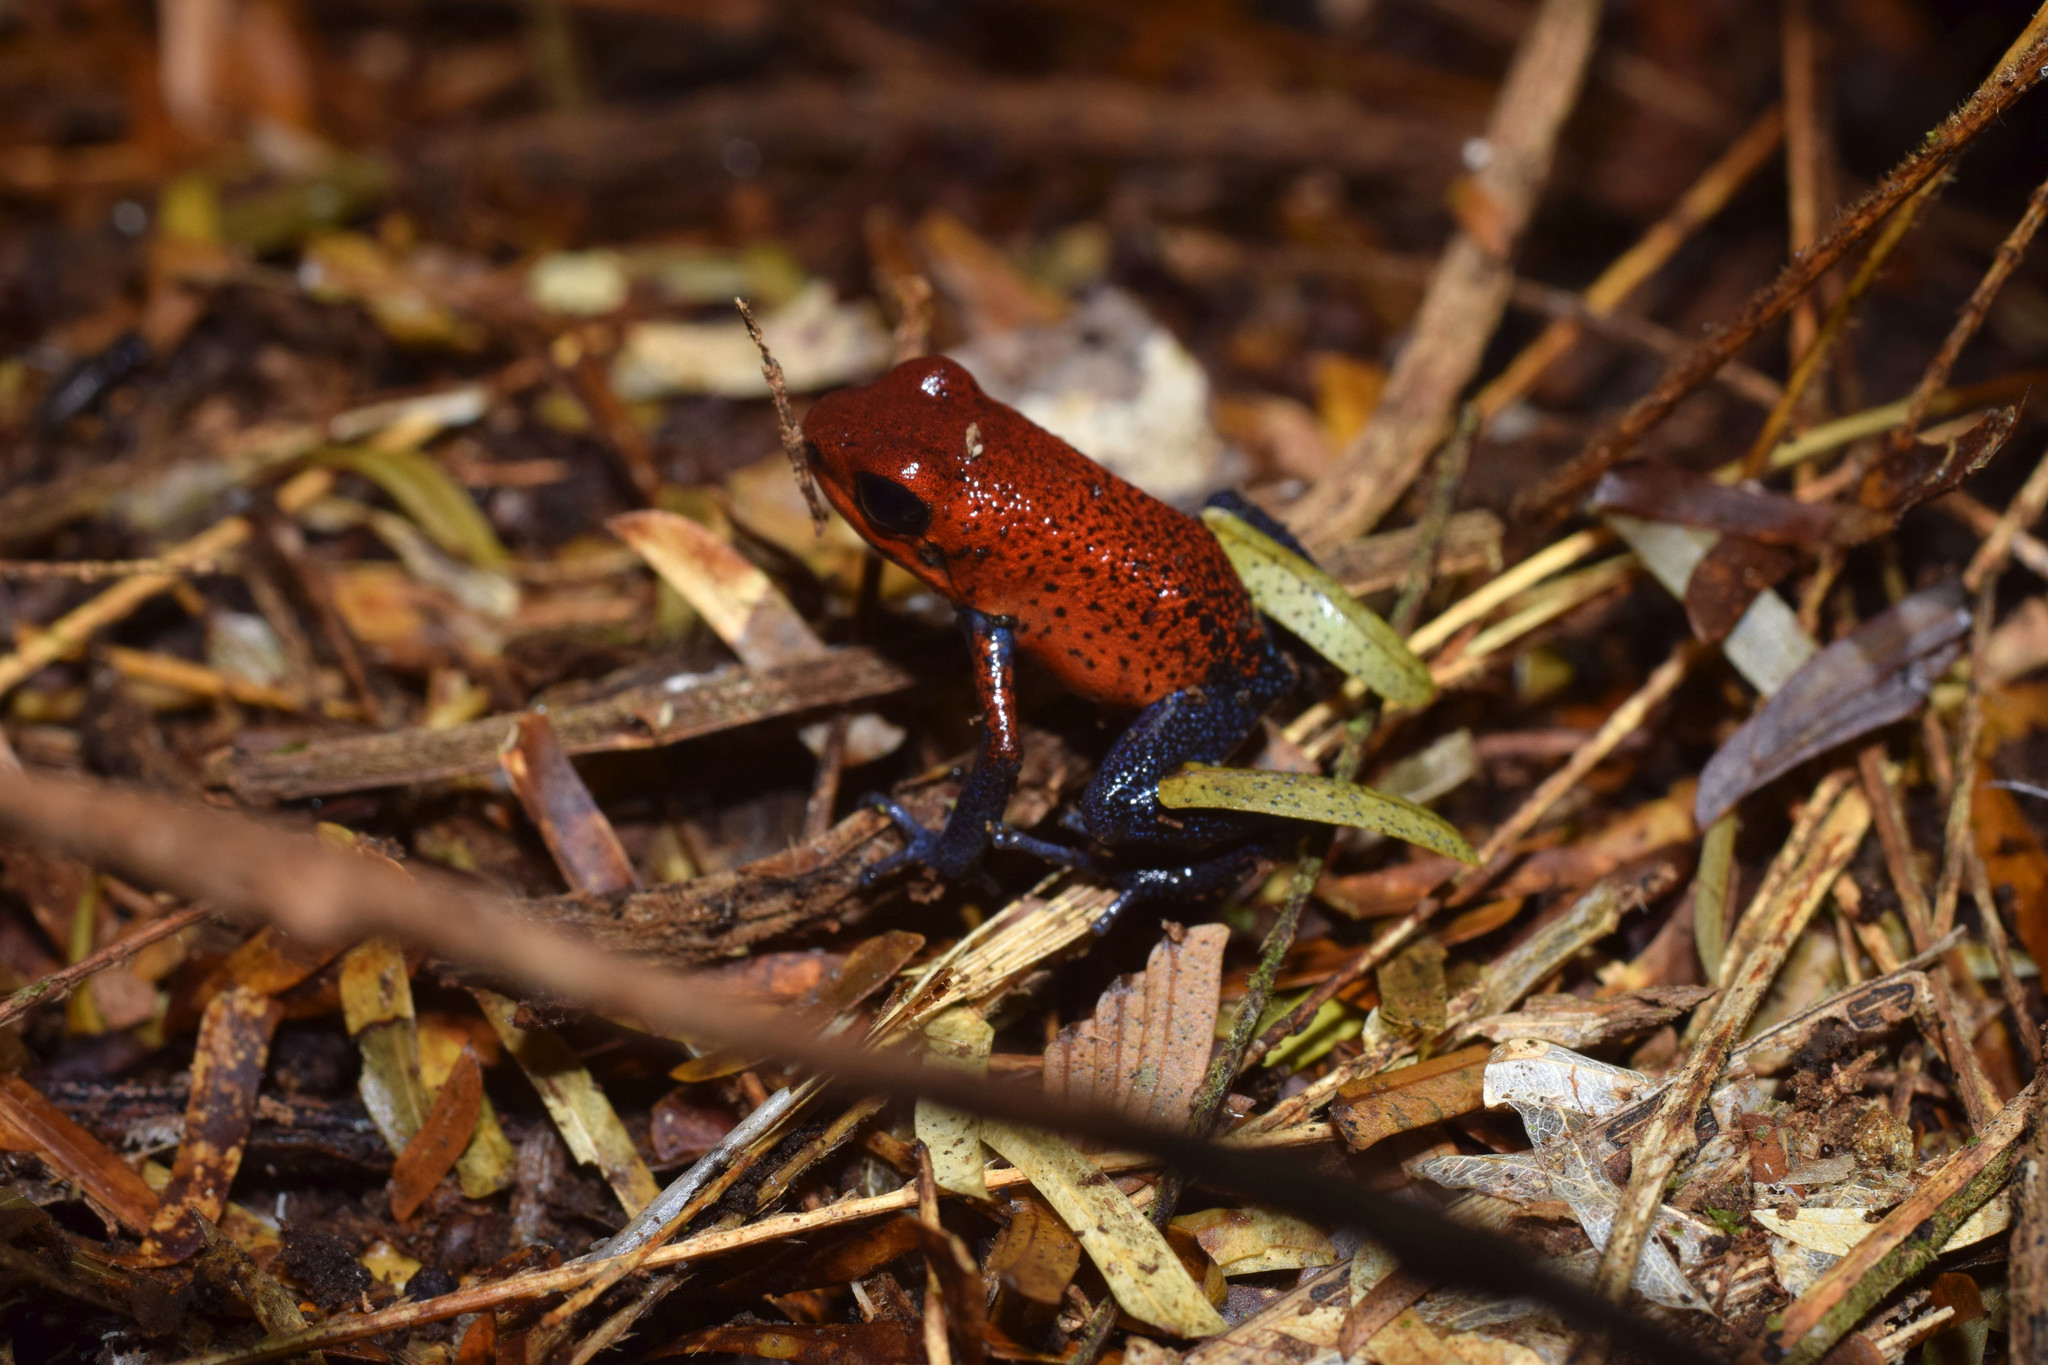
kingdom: Animalia
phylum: Chordata
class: Amphibia
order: Anura
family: Dendrobatidae
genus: Oophaga
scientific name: Oophaga pumilio
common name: Flaming poison frog
